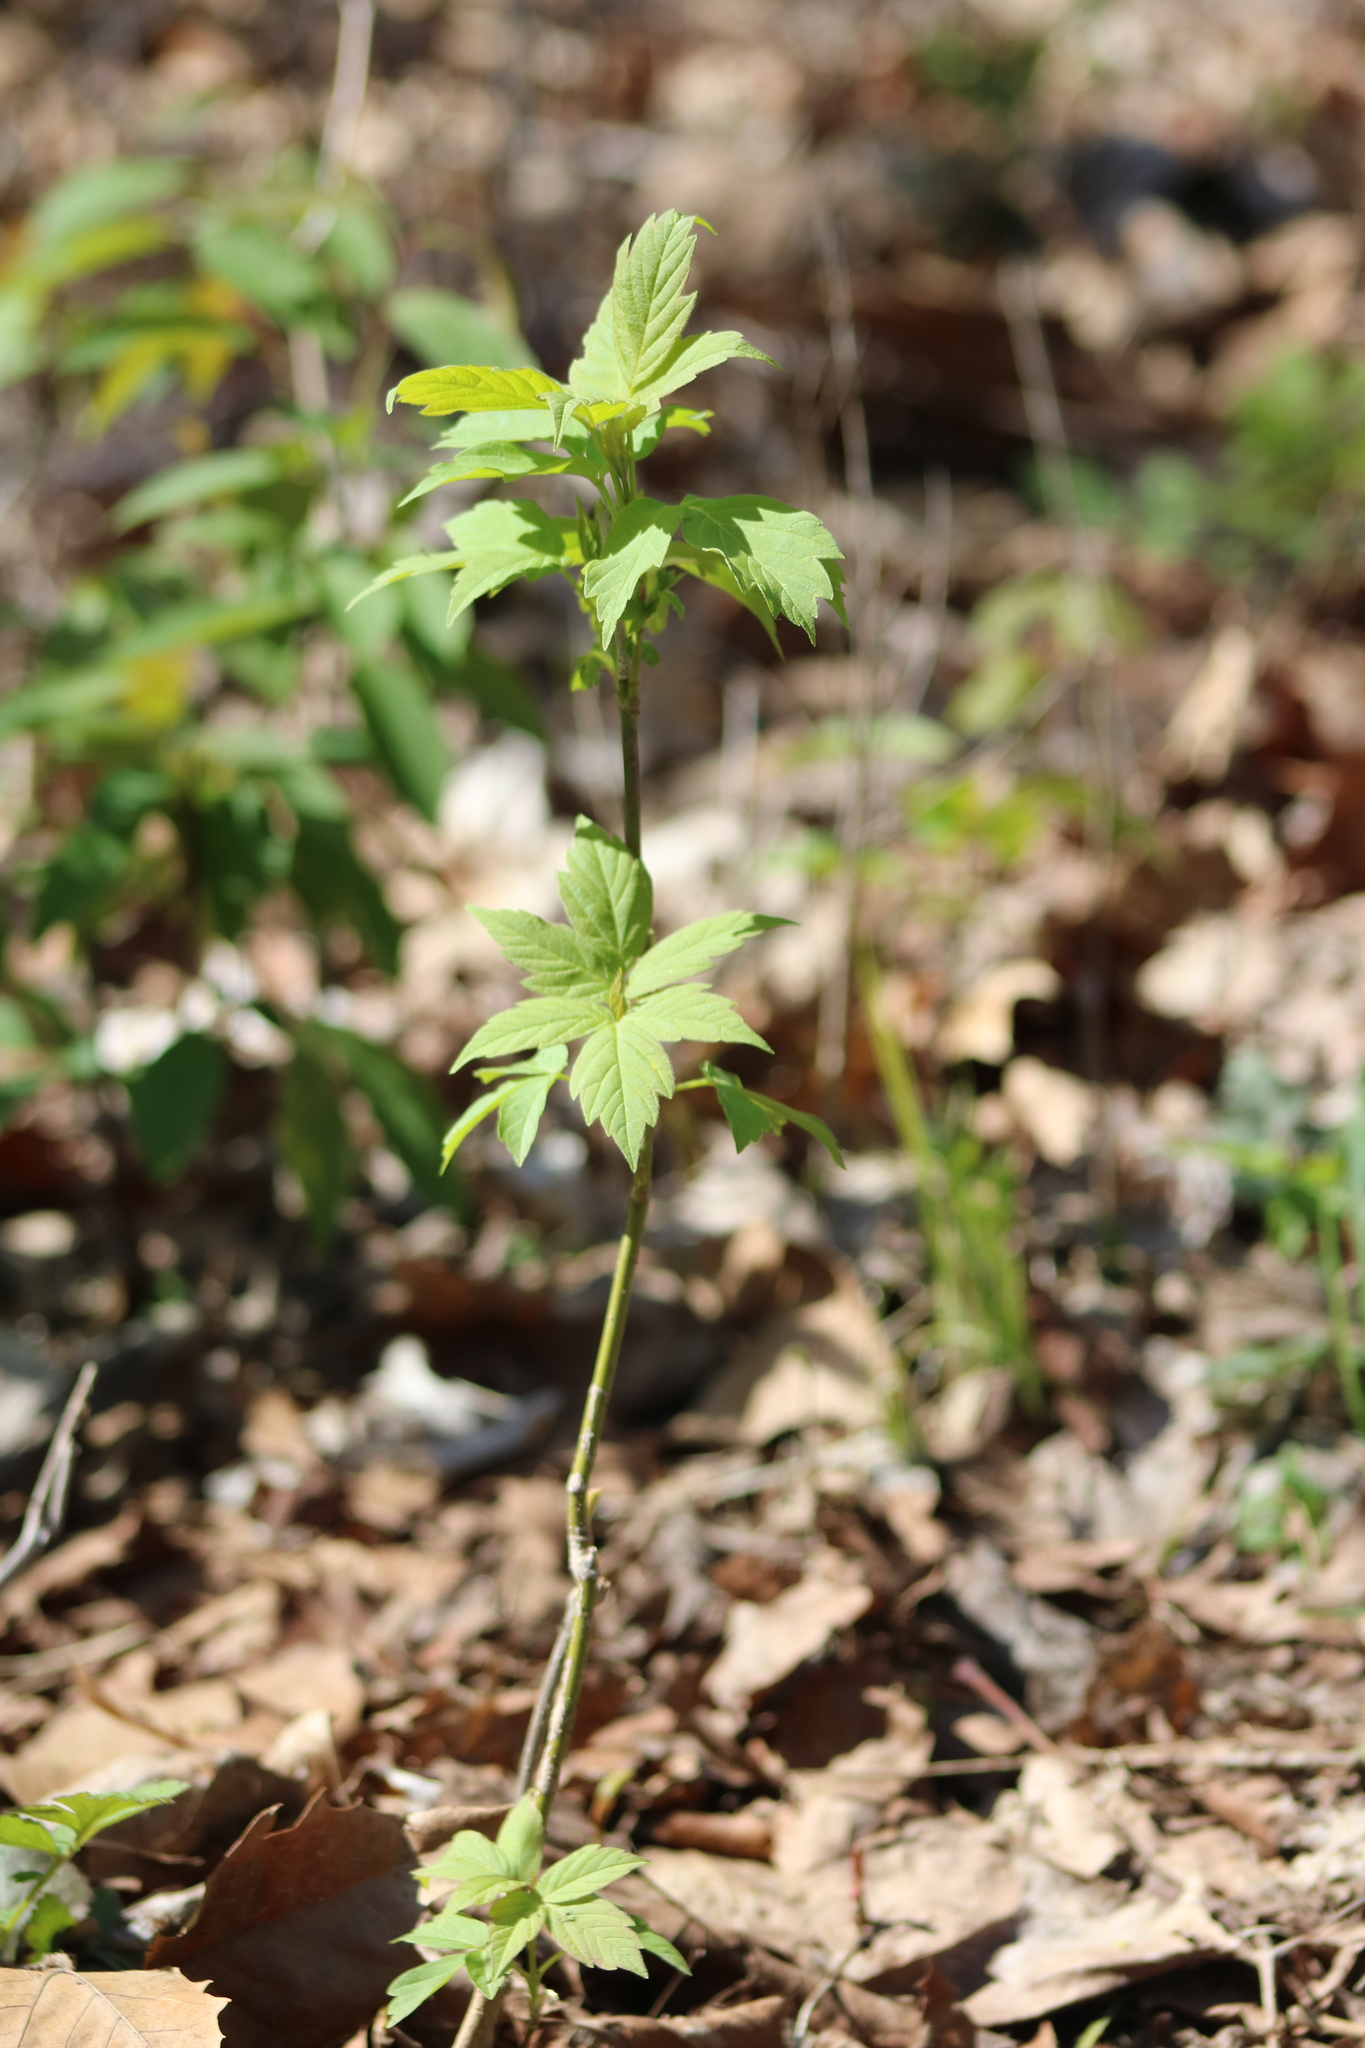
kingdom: Plantae
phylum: Tracheophyta
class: Magnoliopsida
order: Sapindales
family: Sapindaceae
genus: Acer
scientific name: Acer negundo
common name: Ashleaf maple
